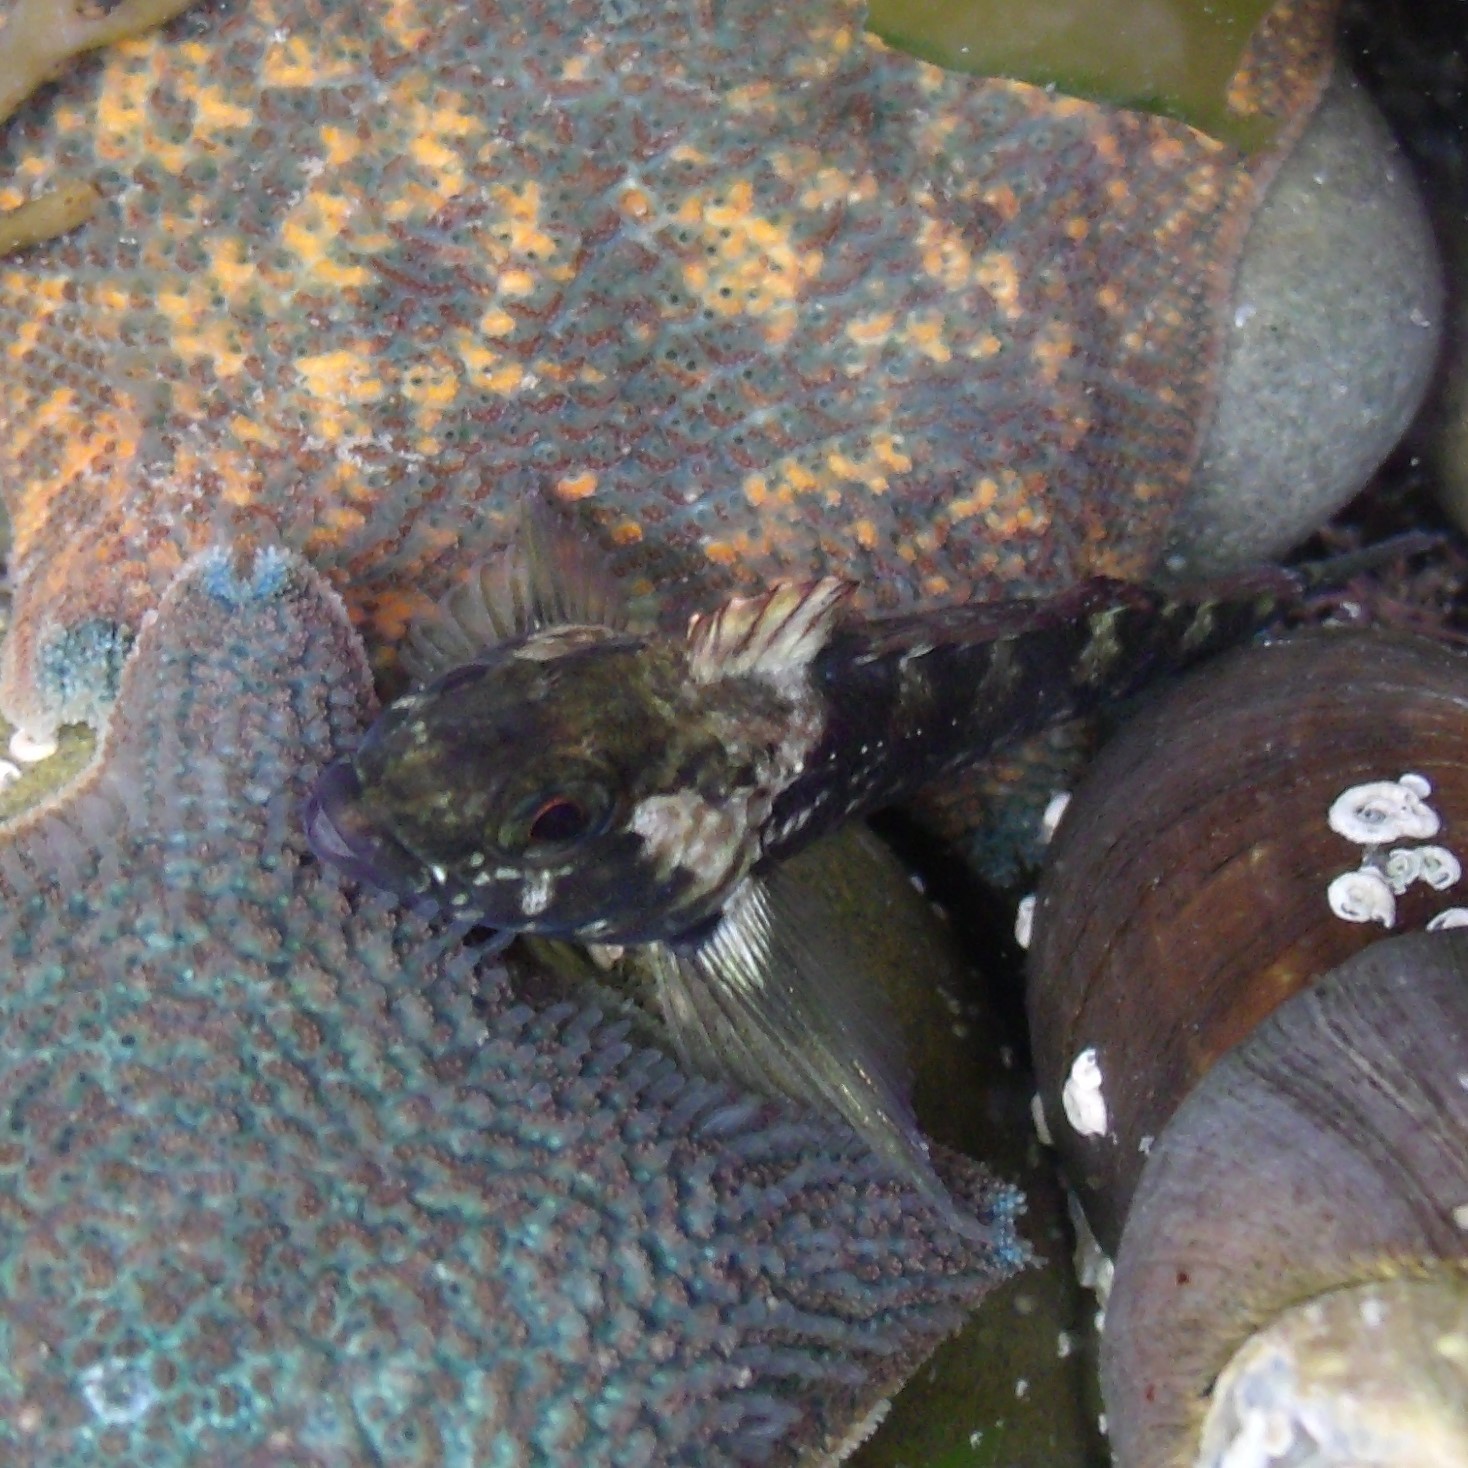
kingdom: Animalia
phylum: Chordata
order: Perciformes
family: Tripterygiidae
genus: Forsterygion
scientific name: Forsterygion gymnotum
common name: Multifid-tentacled robust triplefin
